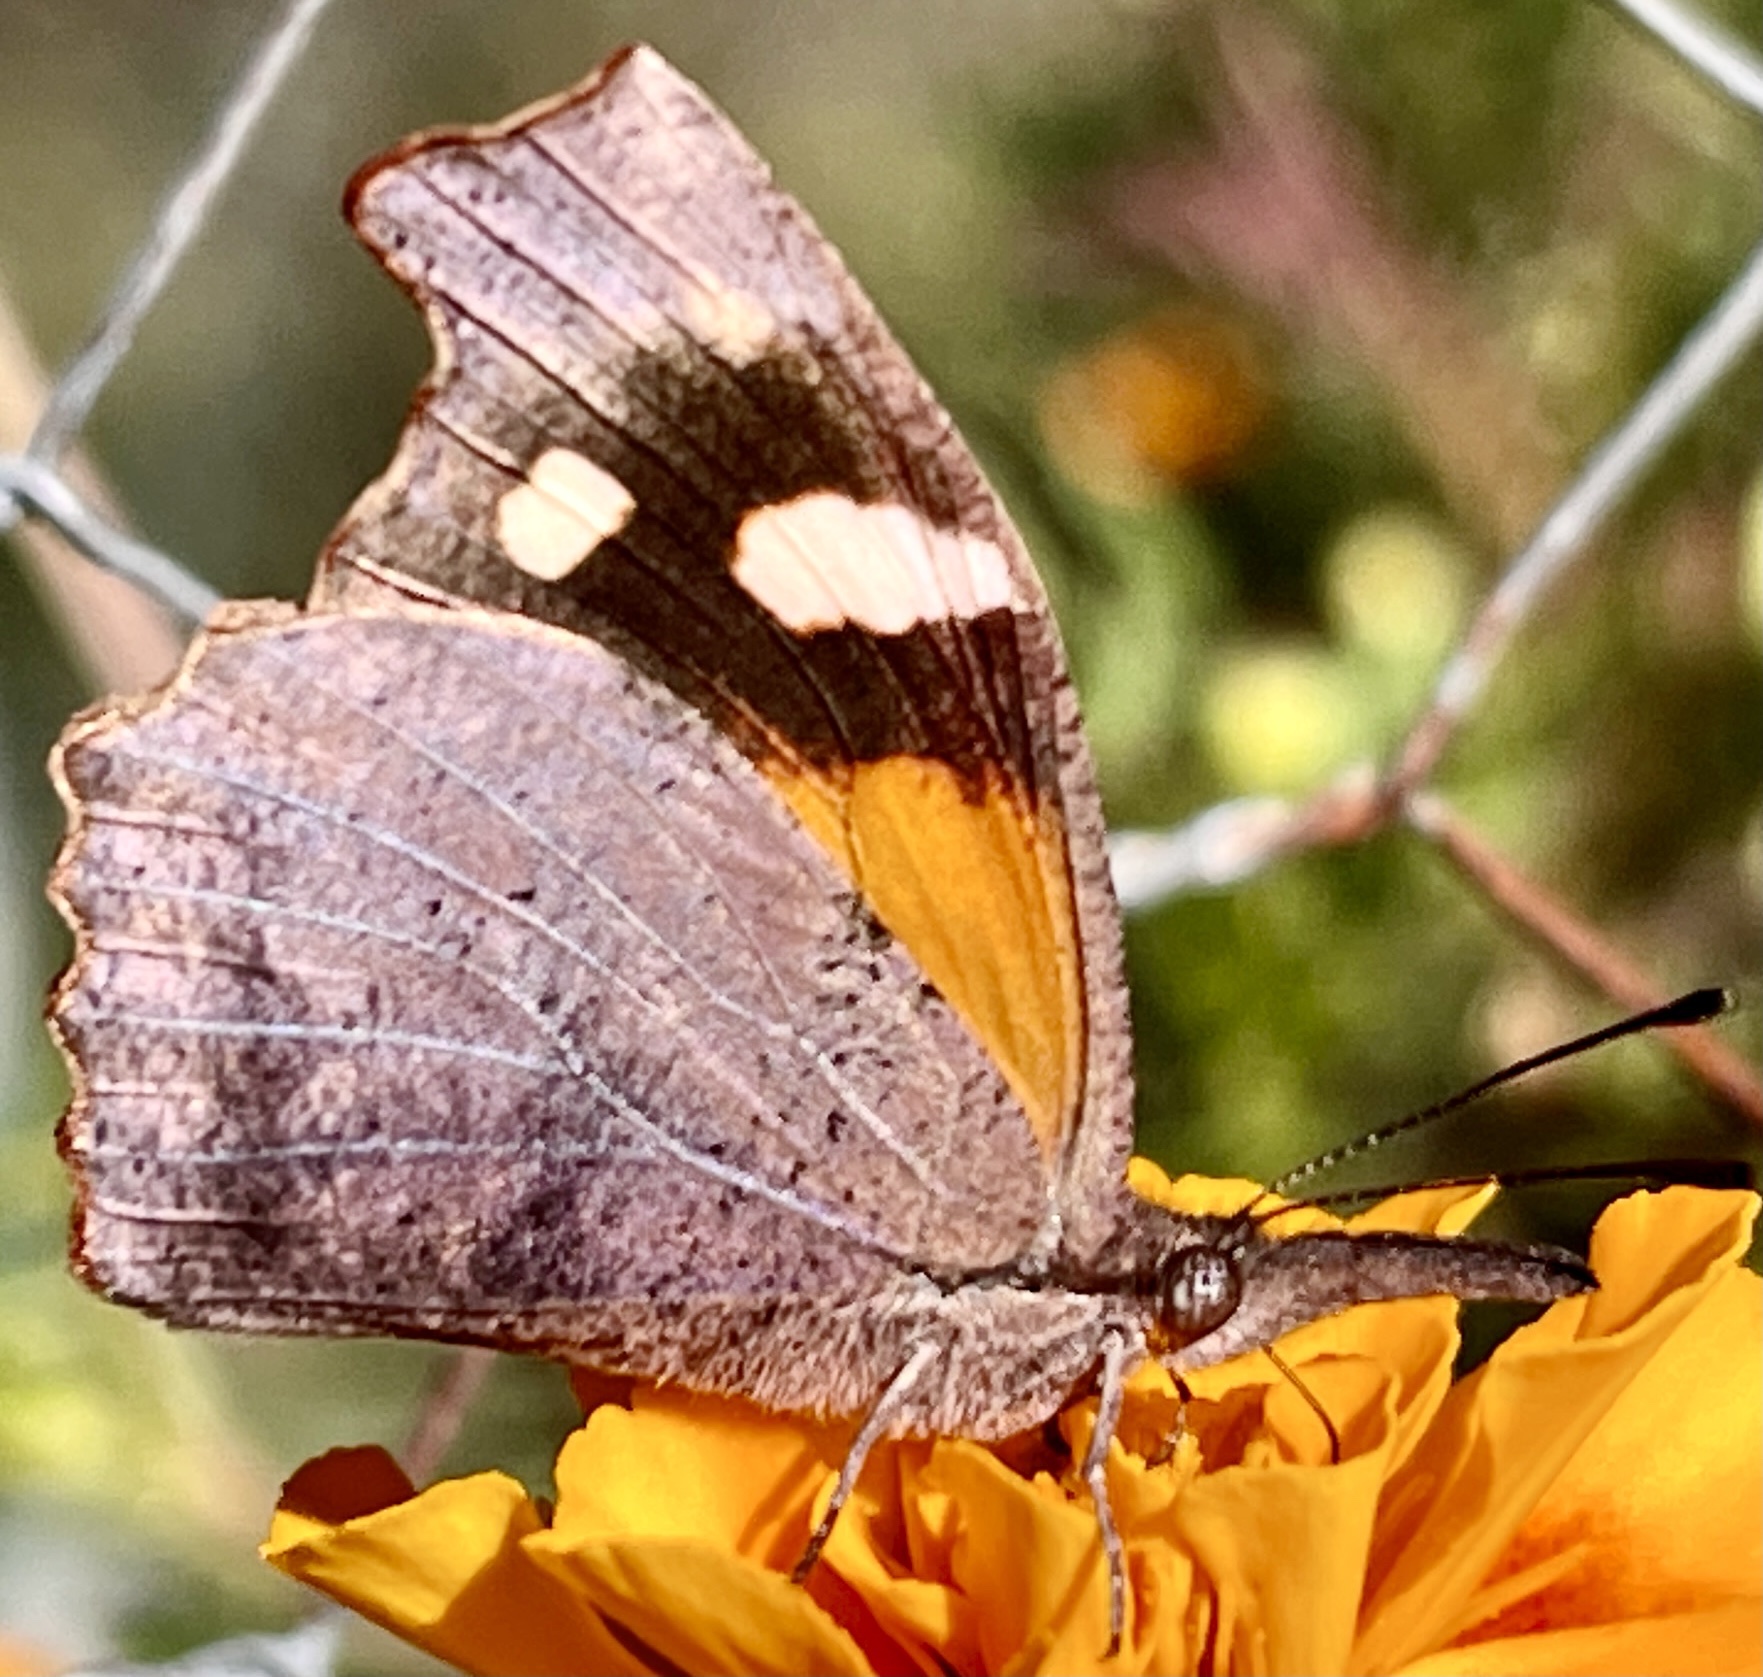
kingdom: Animalia
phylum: Arthropoda
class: Insecta
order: Lepidoptera
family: Nymphalidae
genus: Libytheana
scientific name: Libytheana carinenta
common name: American snout
